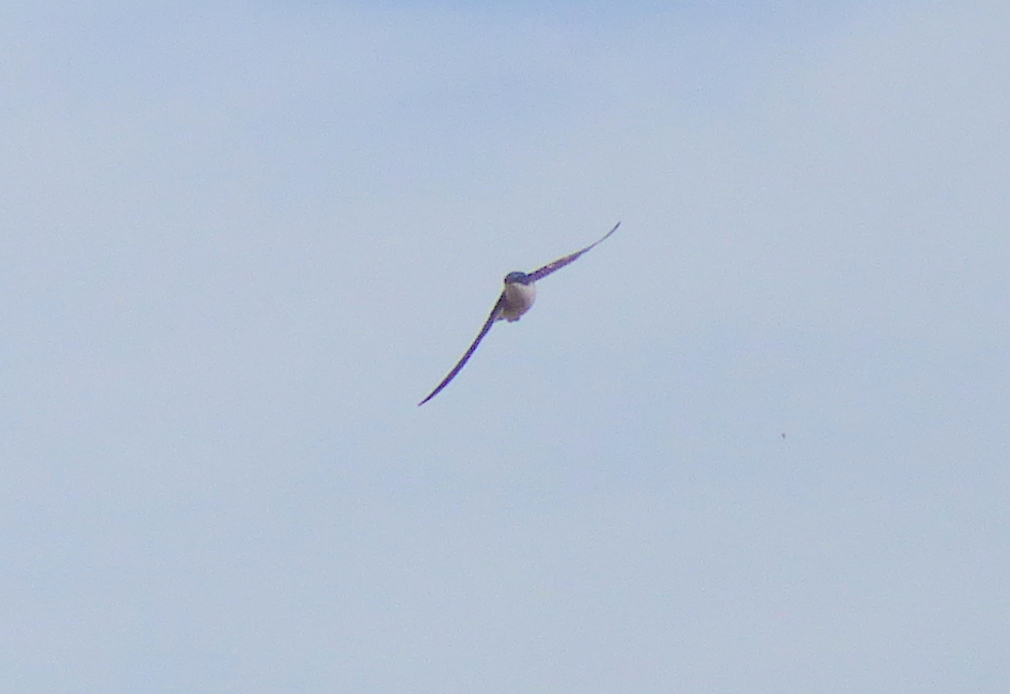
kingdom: Animalia
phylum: Chordata
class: Aves
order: Passeriformes
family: Hirundinidae
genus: Tachycineta
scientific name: Tachycineta leucopyga
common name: Chilean swallow
